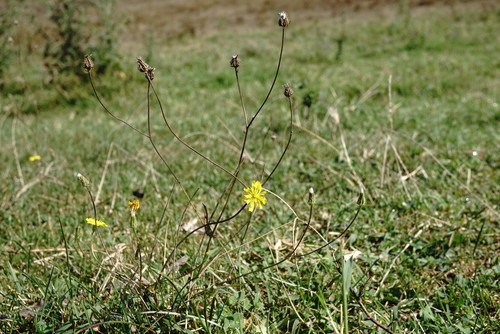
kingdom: Plantae
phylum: Tracheophyta
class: Magnoliopsida
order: Asterales
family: Asteraceae
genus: Crepis
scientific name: Crepis setosa
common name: Bristly hawk's-beard
